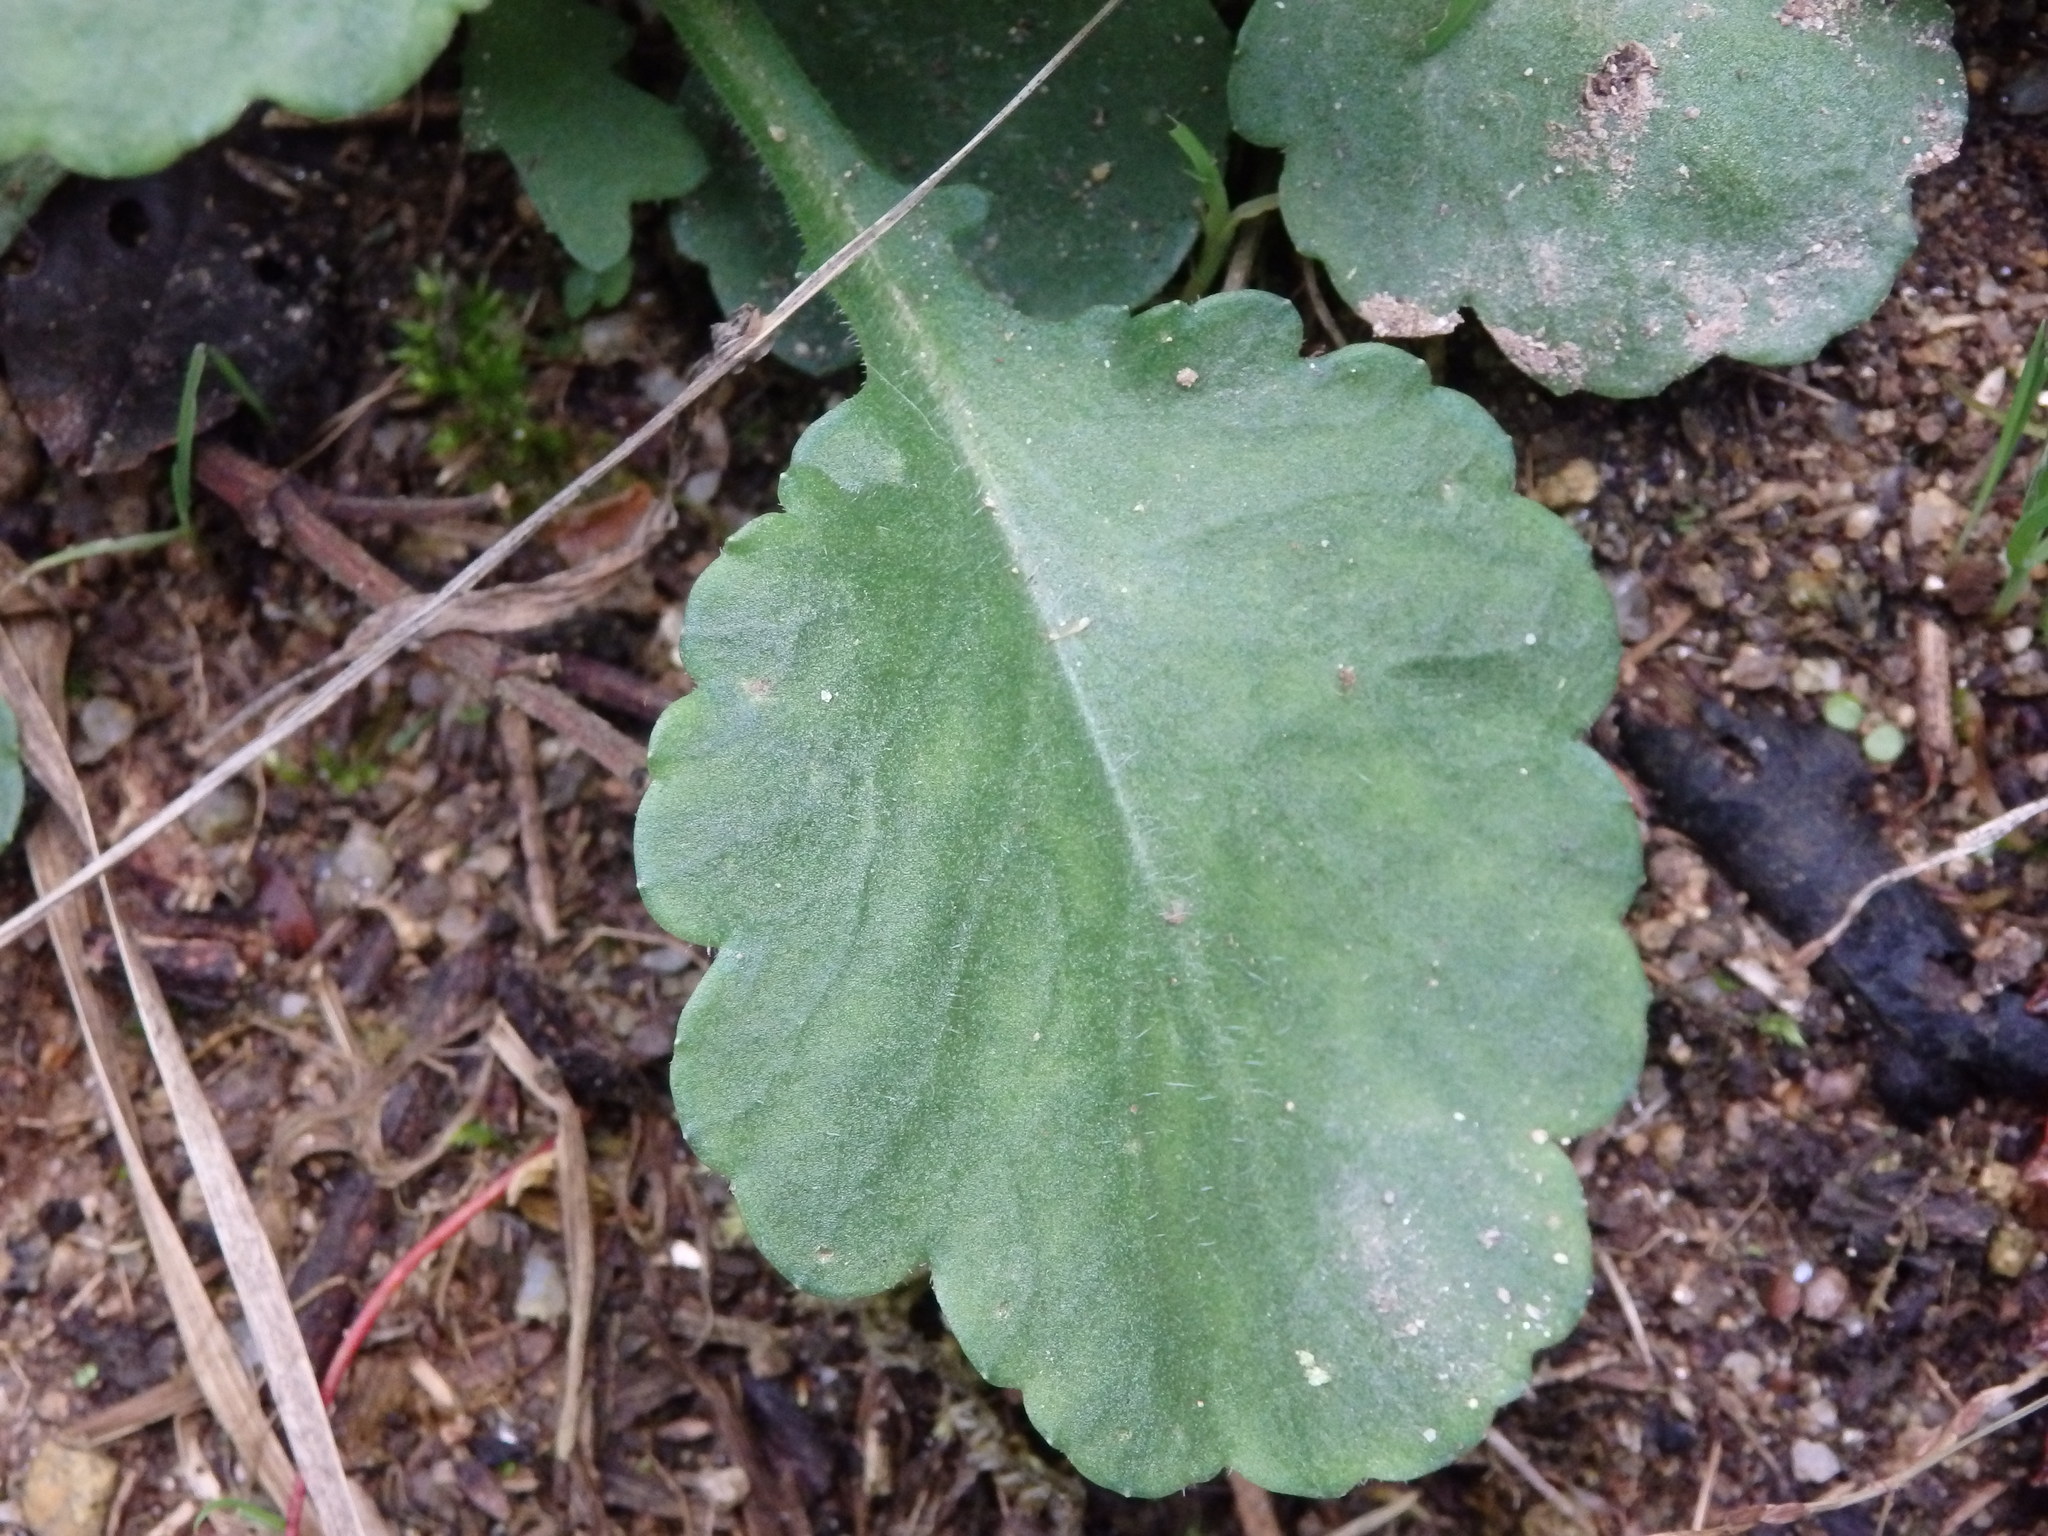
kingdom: Plantae
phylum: Tracheophyta
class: Magnoliopsida
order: Asterales
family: Asteraceae
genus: Leucanthemum
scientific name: Leucanthemum ircutianum
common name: Daisy
